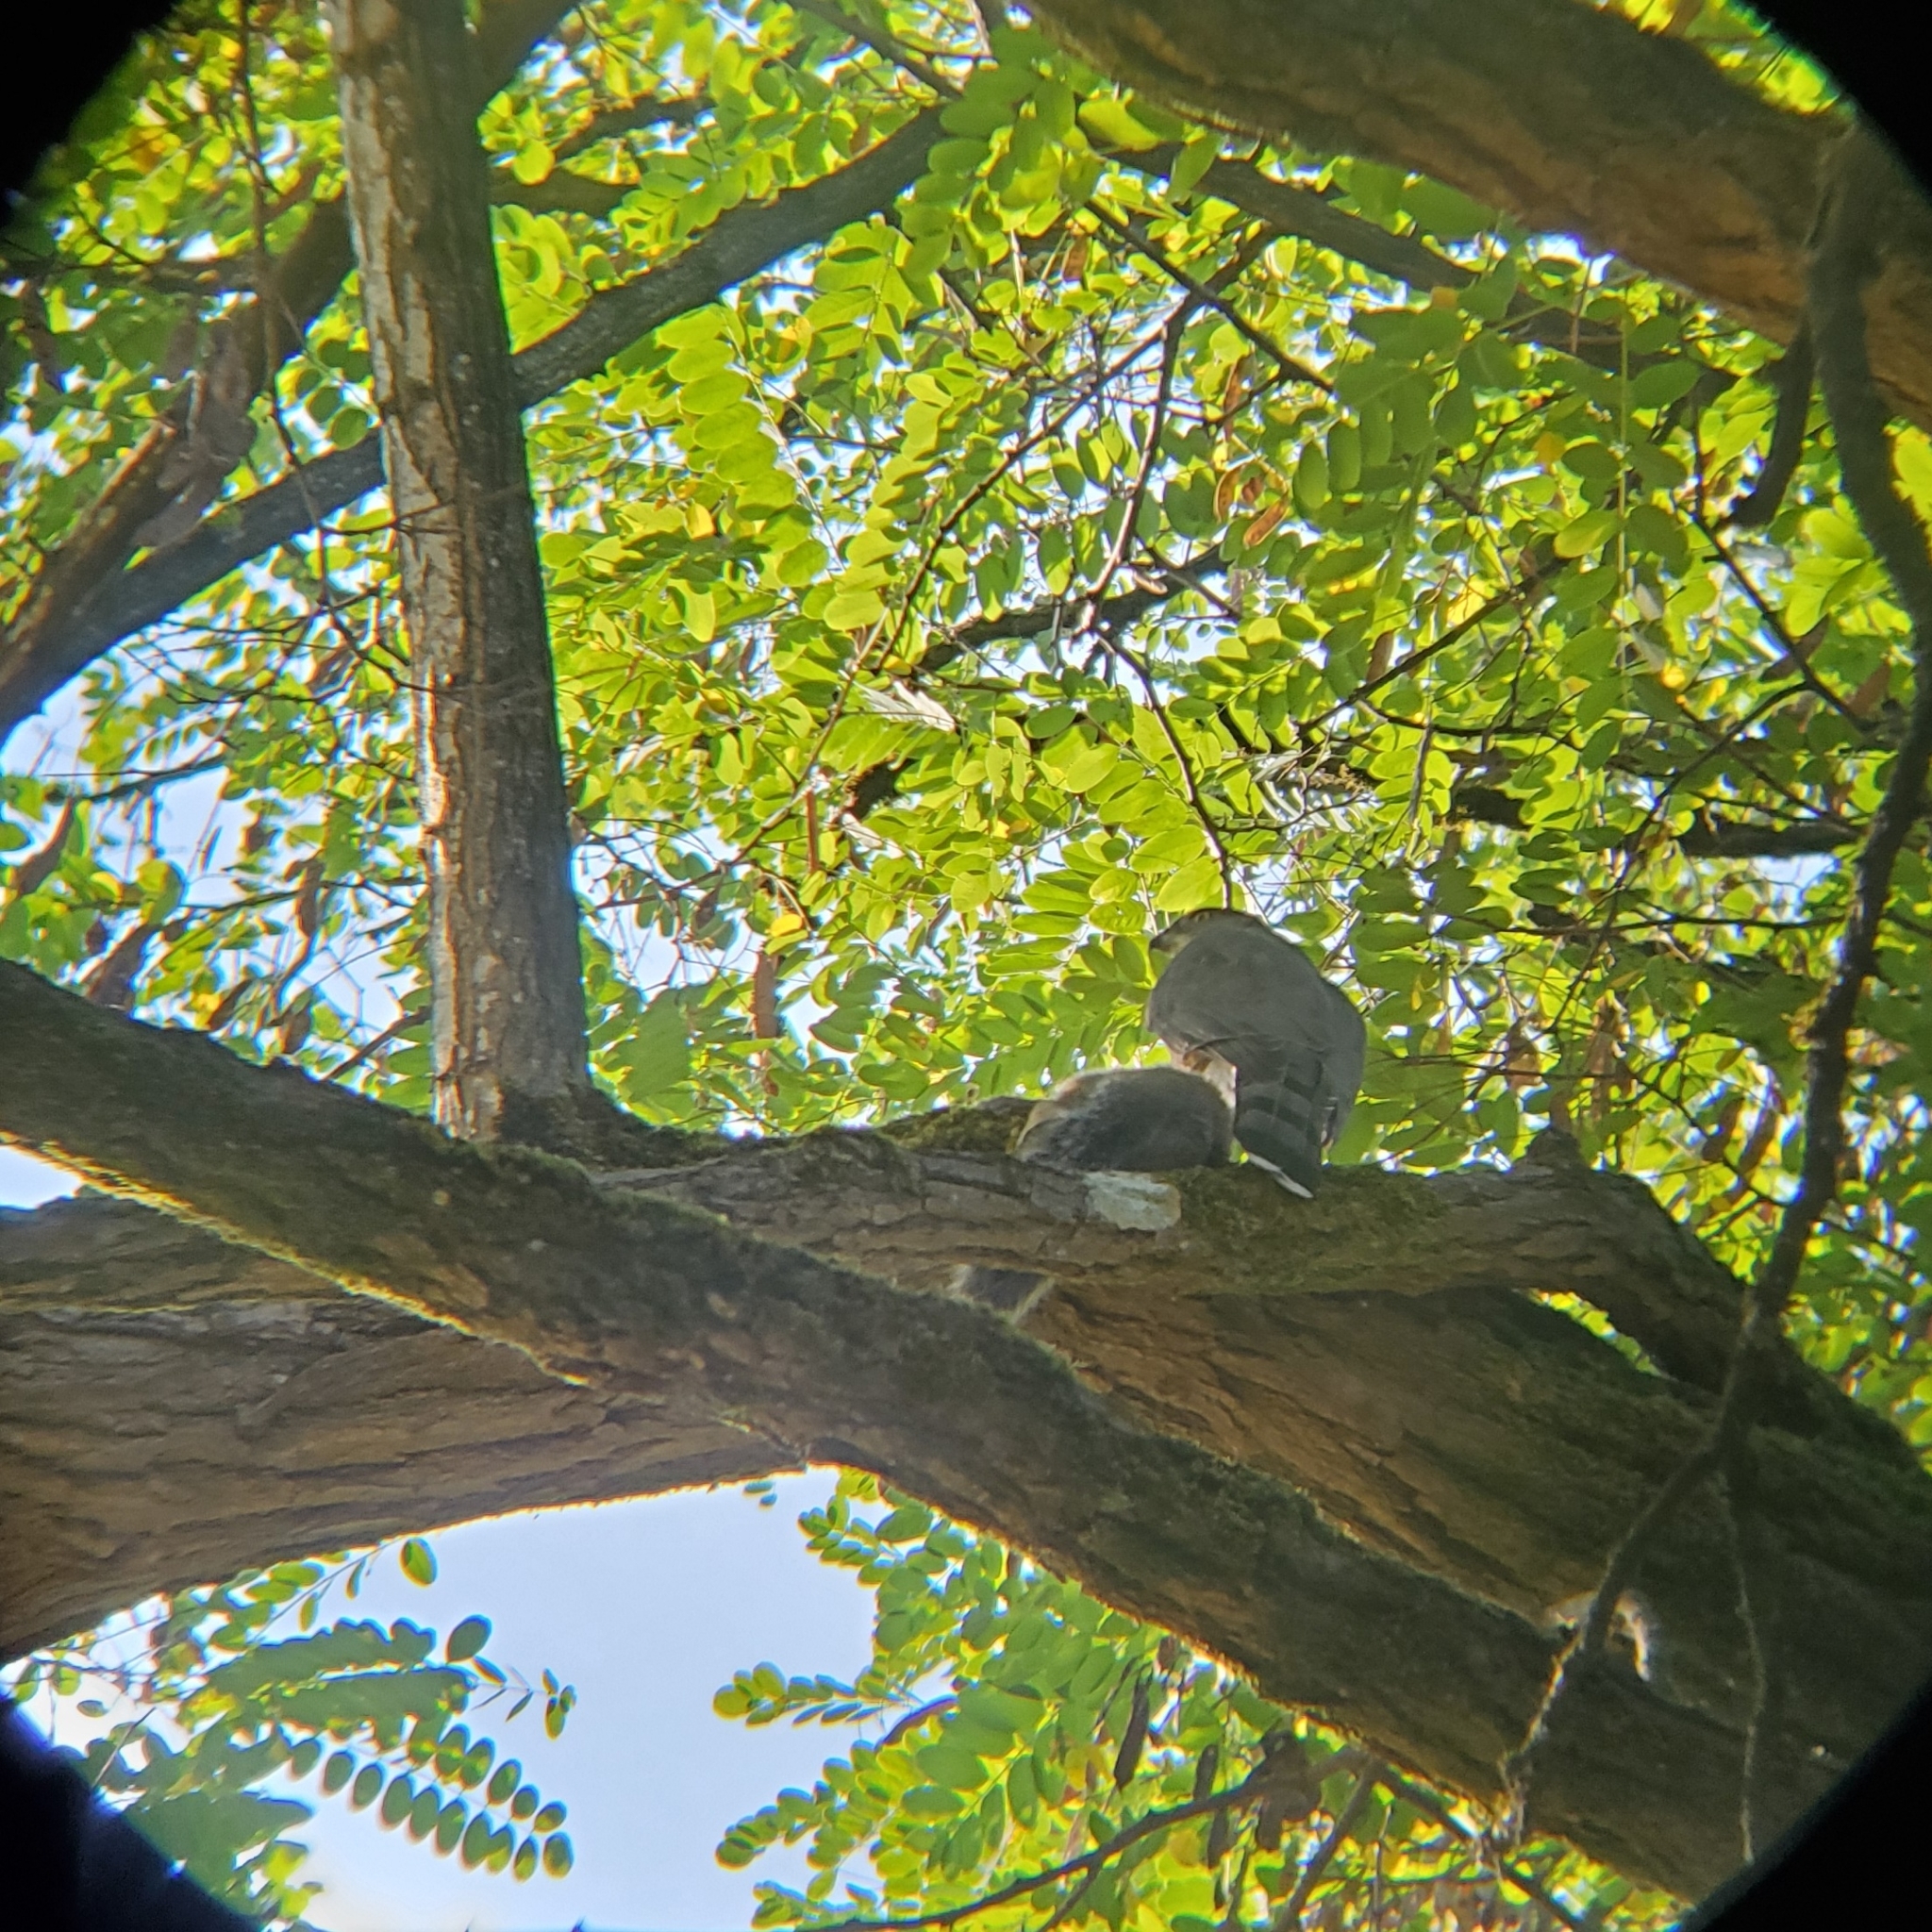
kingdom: Animalia
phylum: Chordata
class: Aves
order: Accipitriformes
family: Accipitridae
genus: Accipiter
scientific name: Accipiter cooperii
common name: Cooper's hawk
